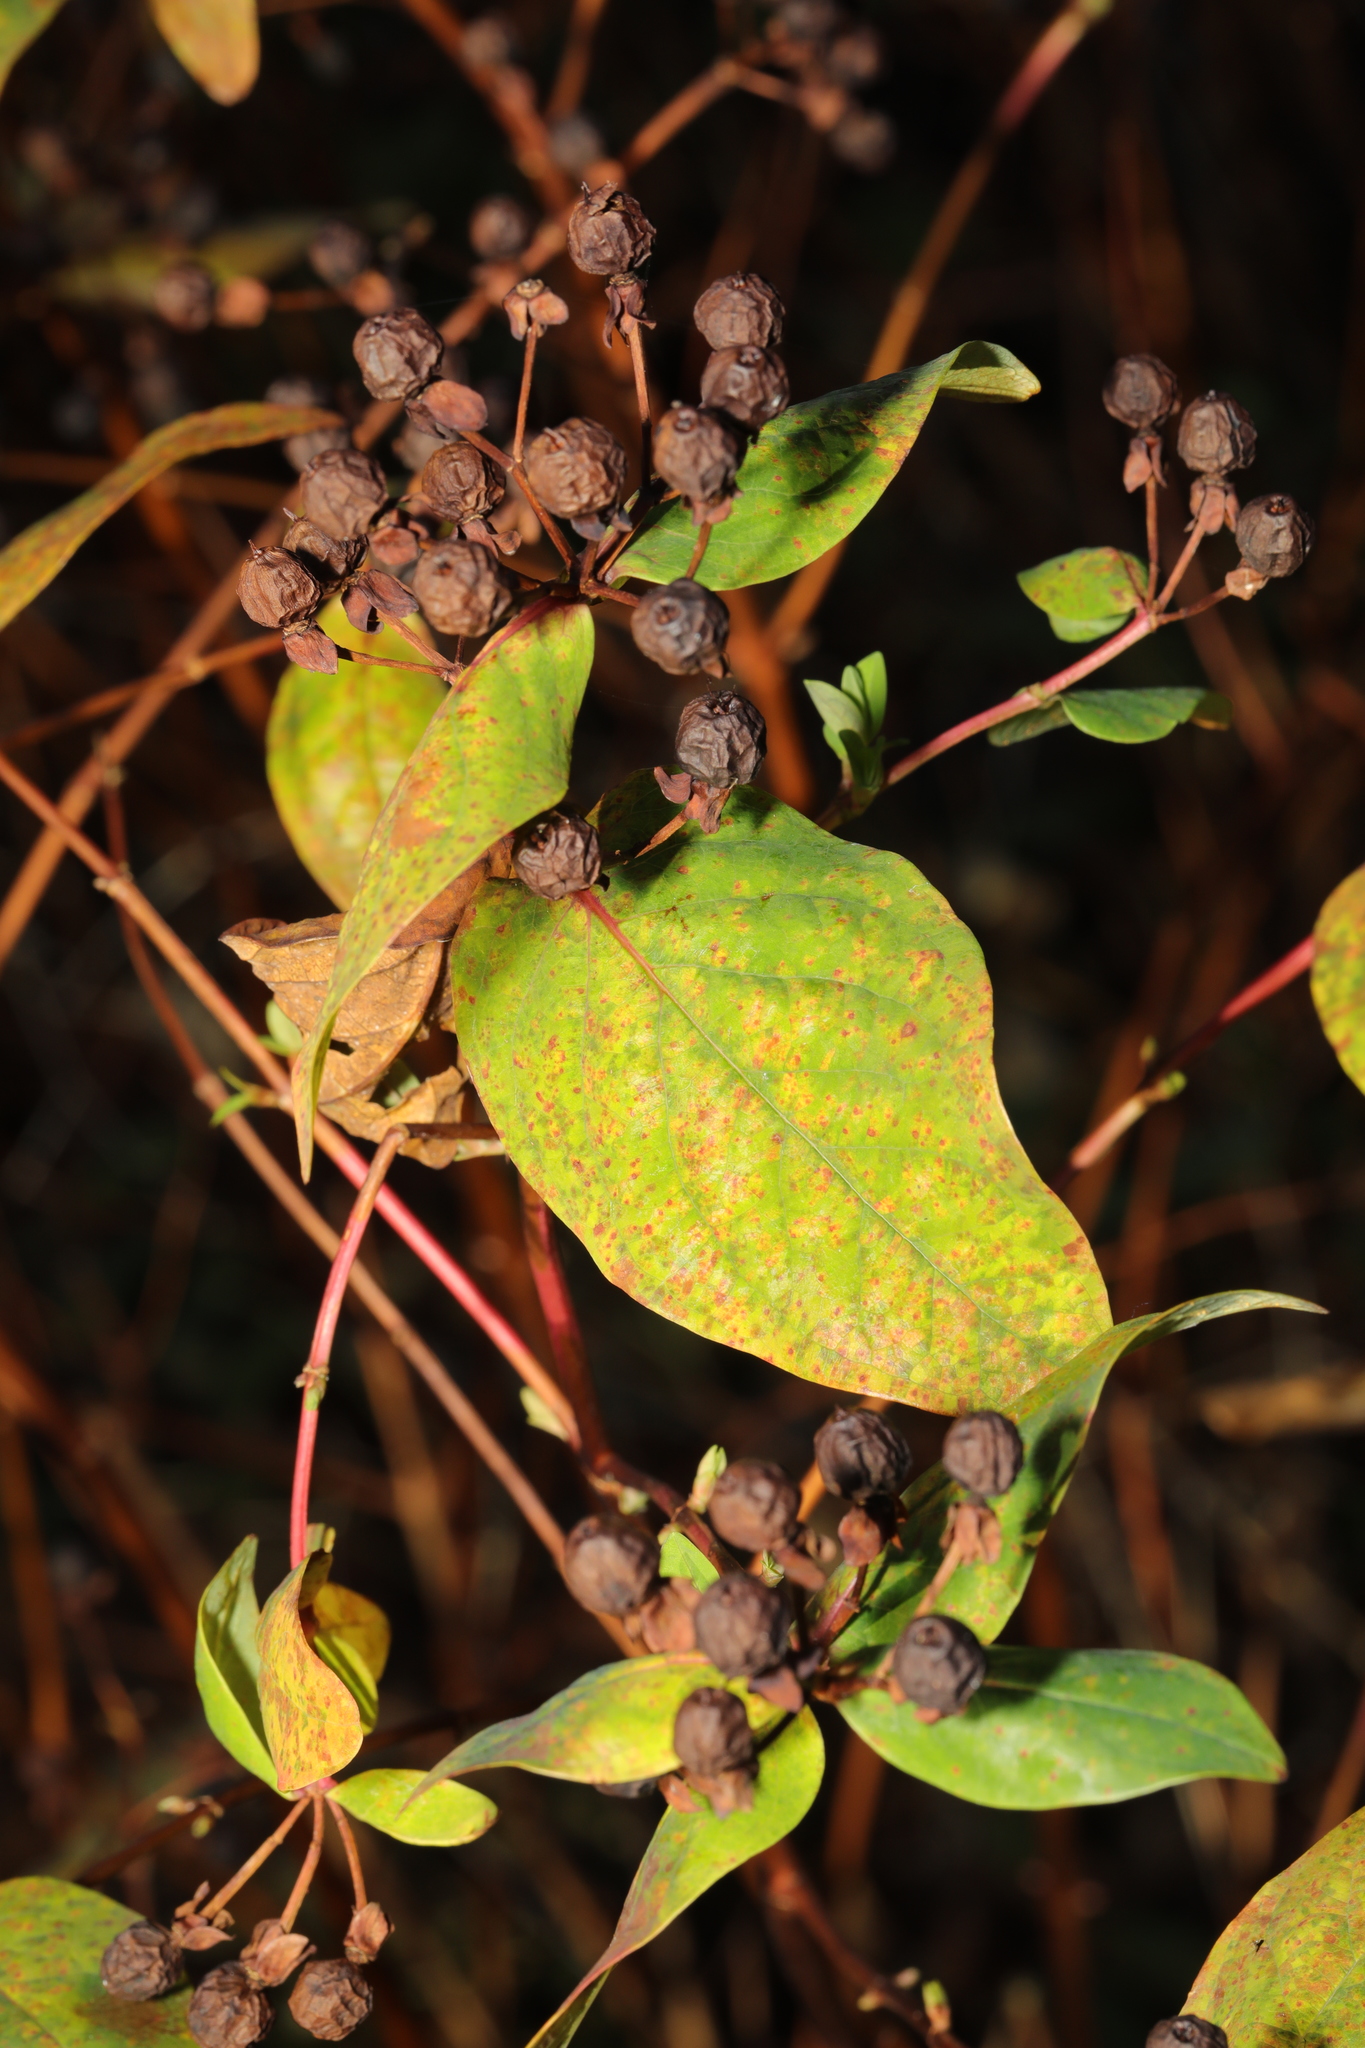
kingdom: Plantae
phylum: Tracheophyta
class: Magnoliopsida
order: Malpighiales
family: Hypericaceae
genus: Hypericum
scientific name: Hypericum androsaemum
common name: Sweet-amber
